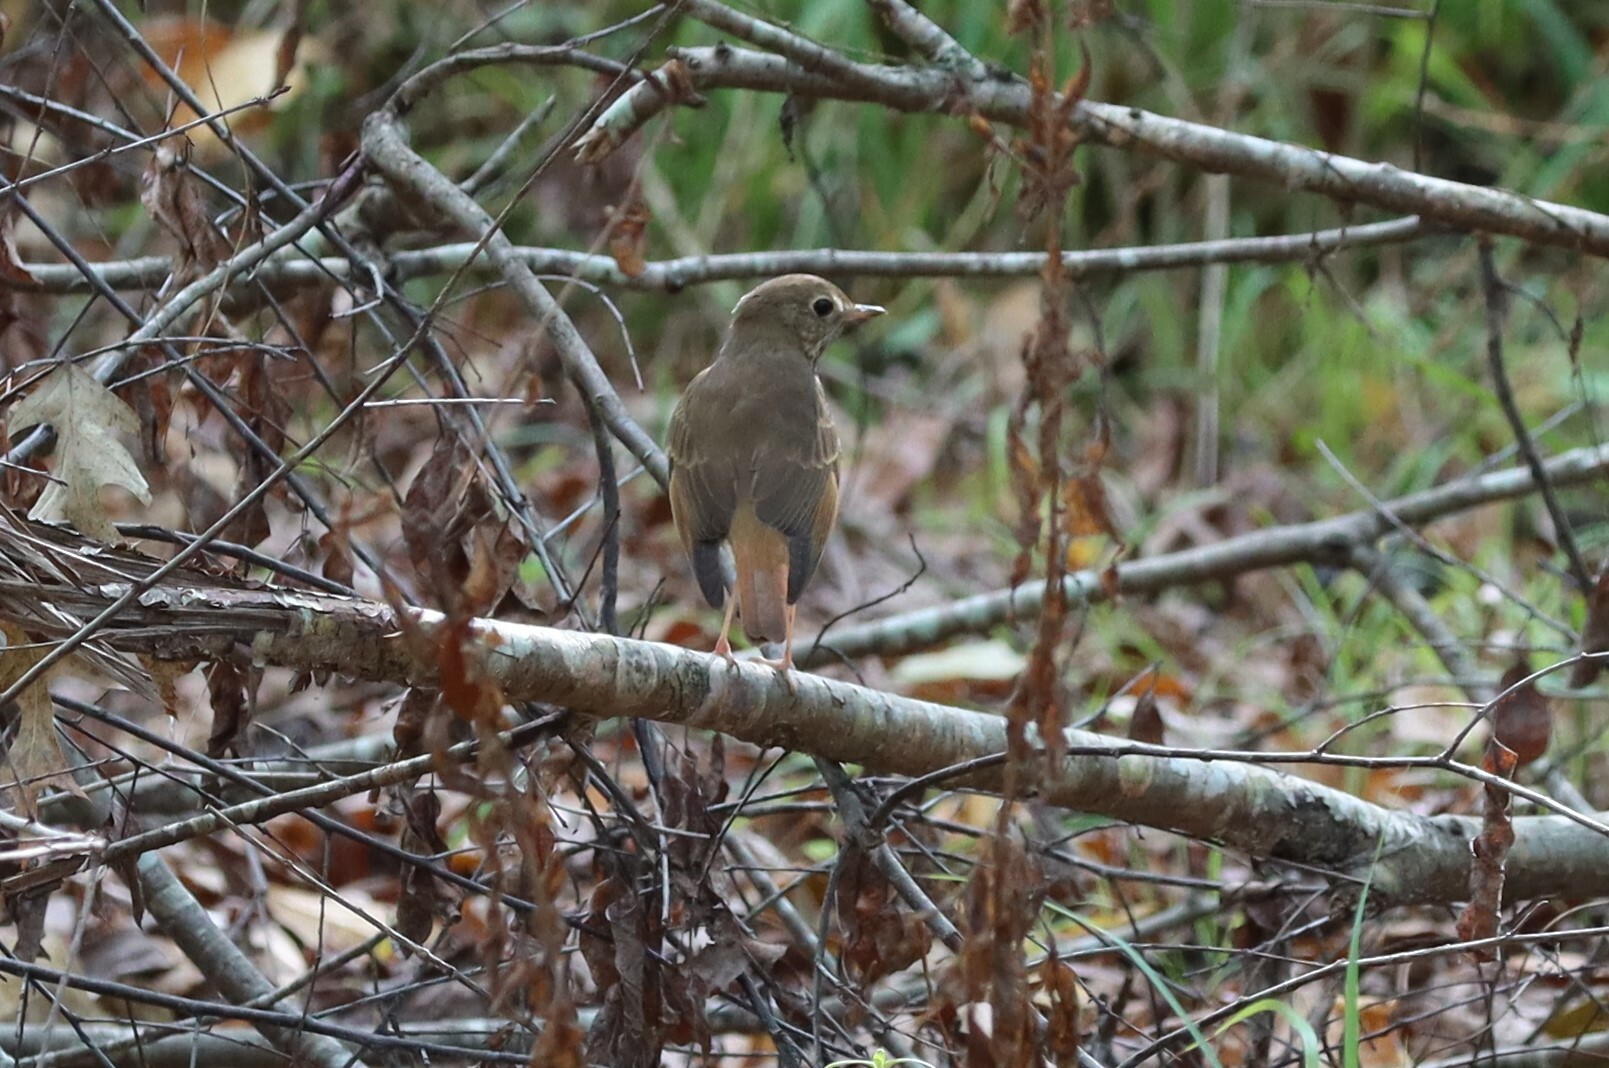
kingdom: Animalia
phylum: Chordata
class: Aves
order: Passeriformes
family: Turdidae
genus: Catharus
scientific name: Catharus guttatus
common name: Hermit thrush
